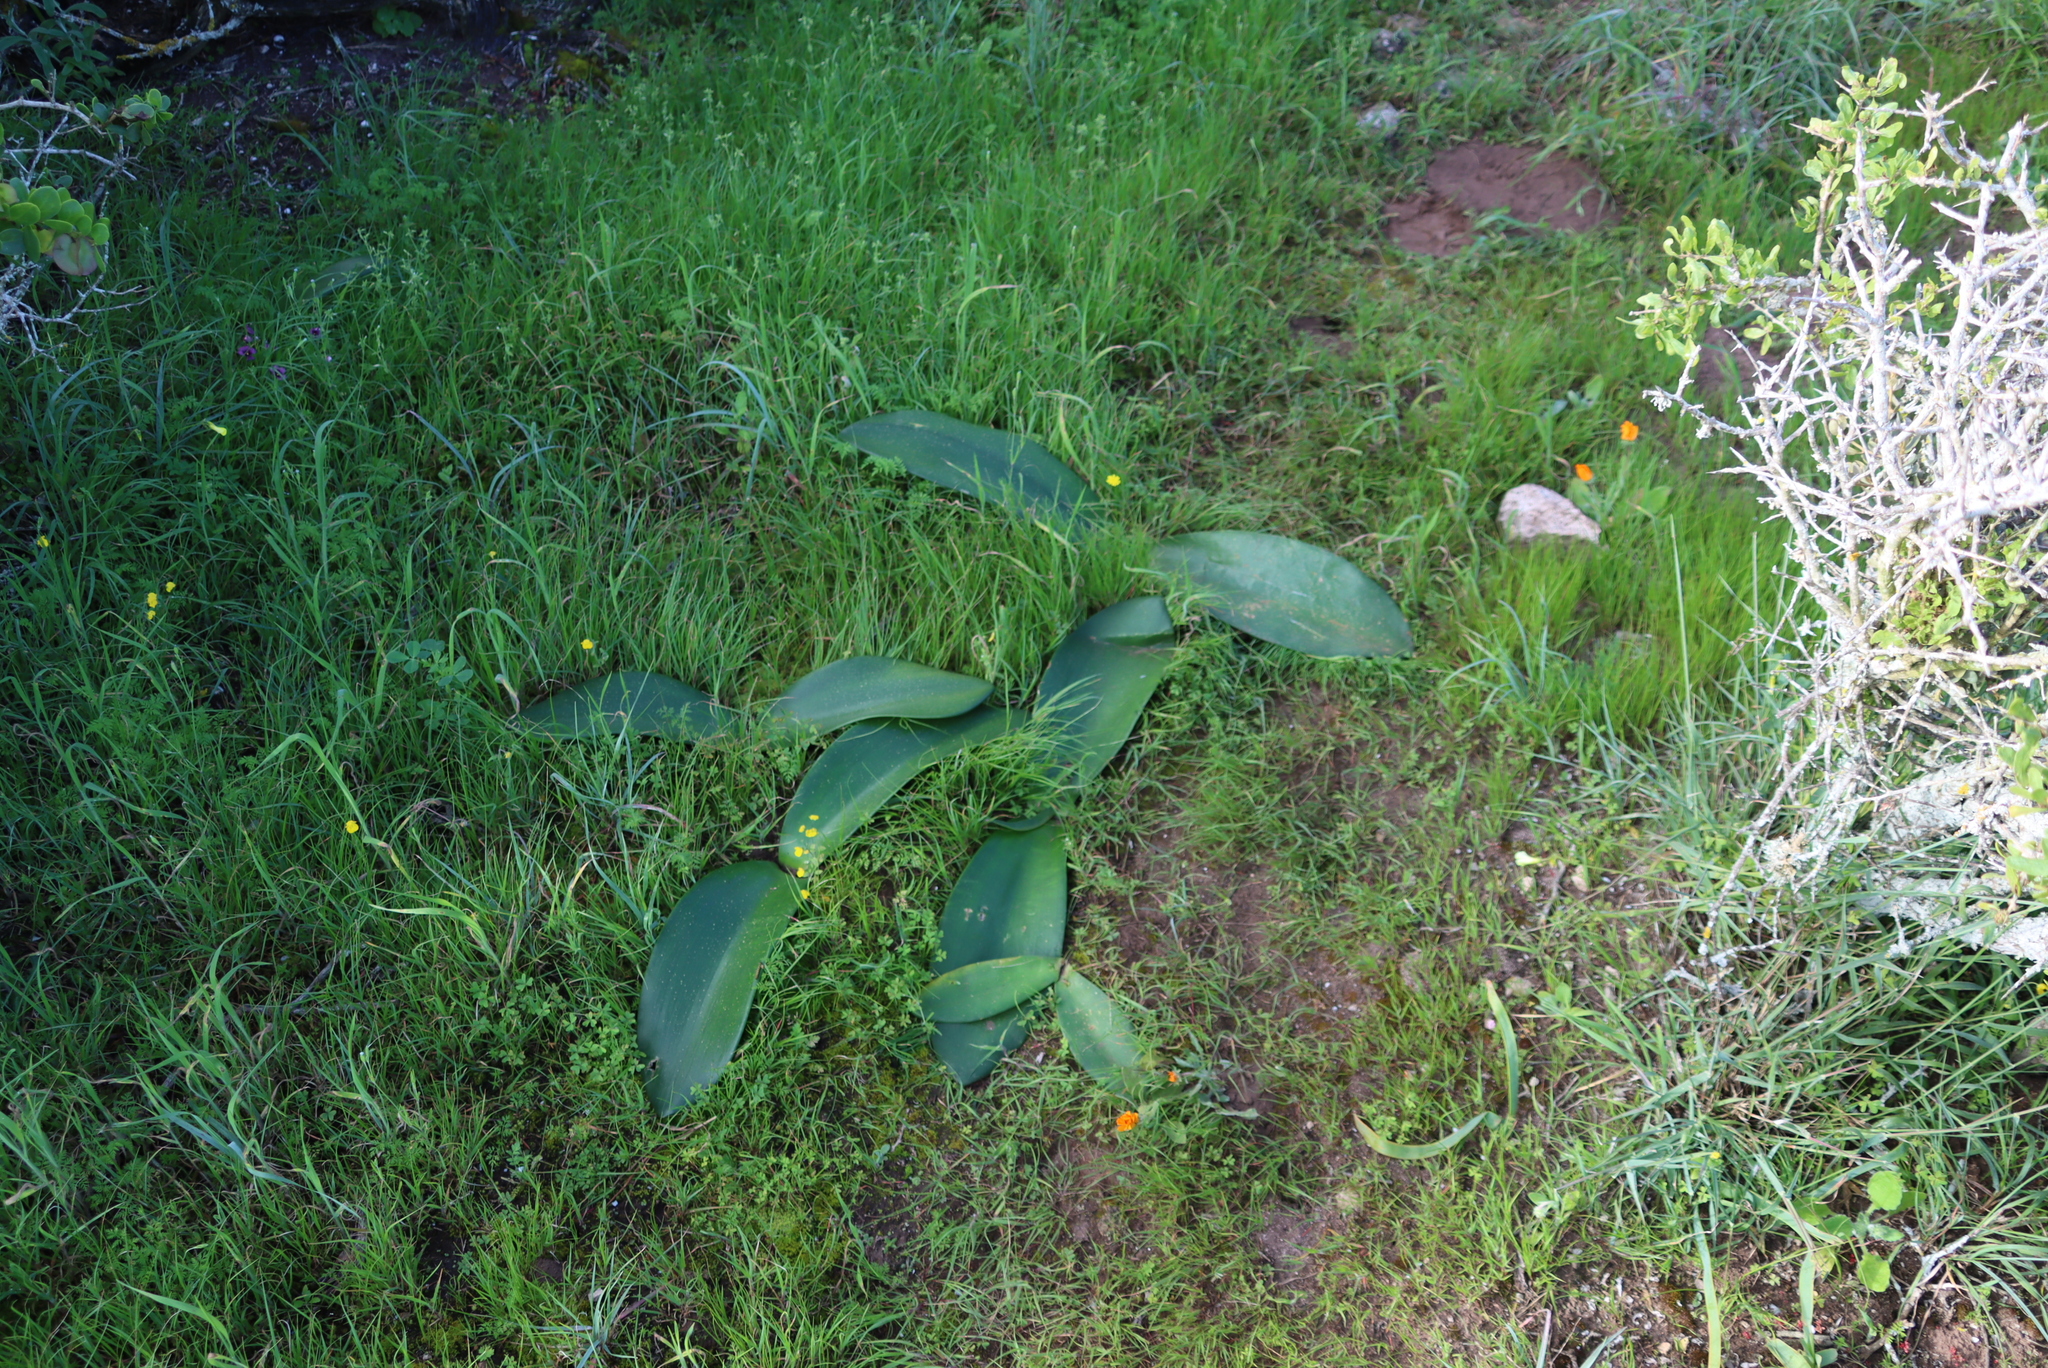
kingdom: Plantae
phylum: Tracheophyta
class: Liliopsida
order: Asparagales
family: Amaryllidaceae
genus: Haemanthus
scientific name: Haemanthus coccineus
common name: Cape-tulip
